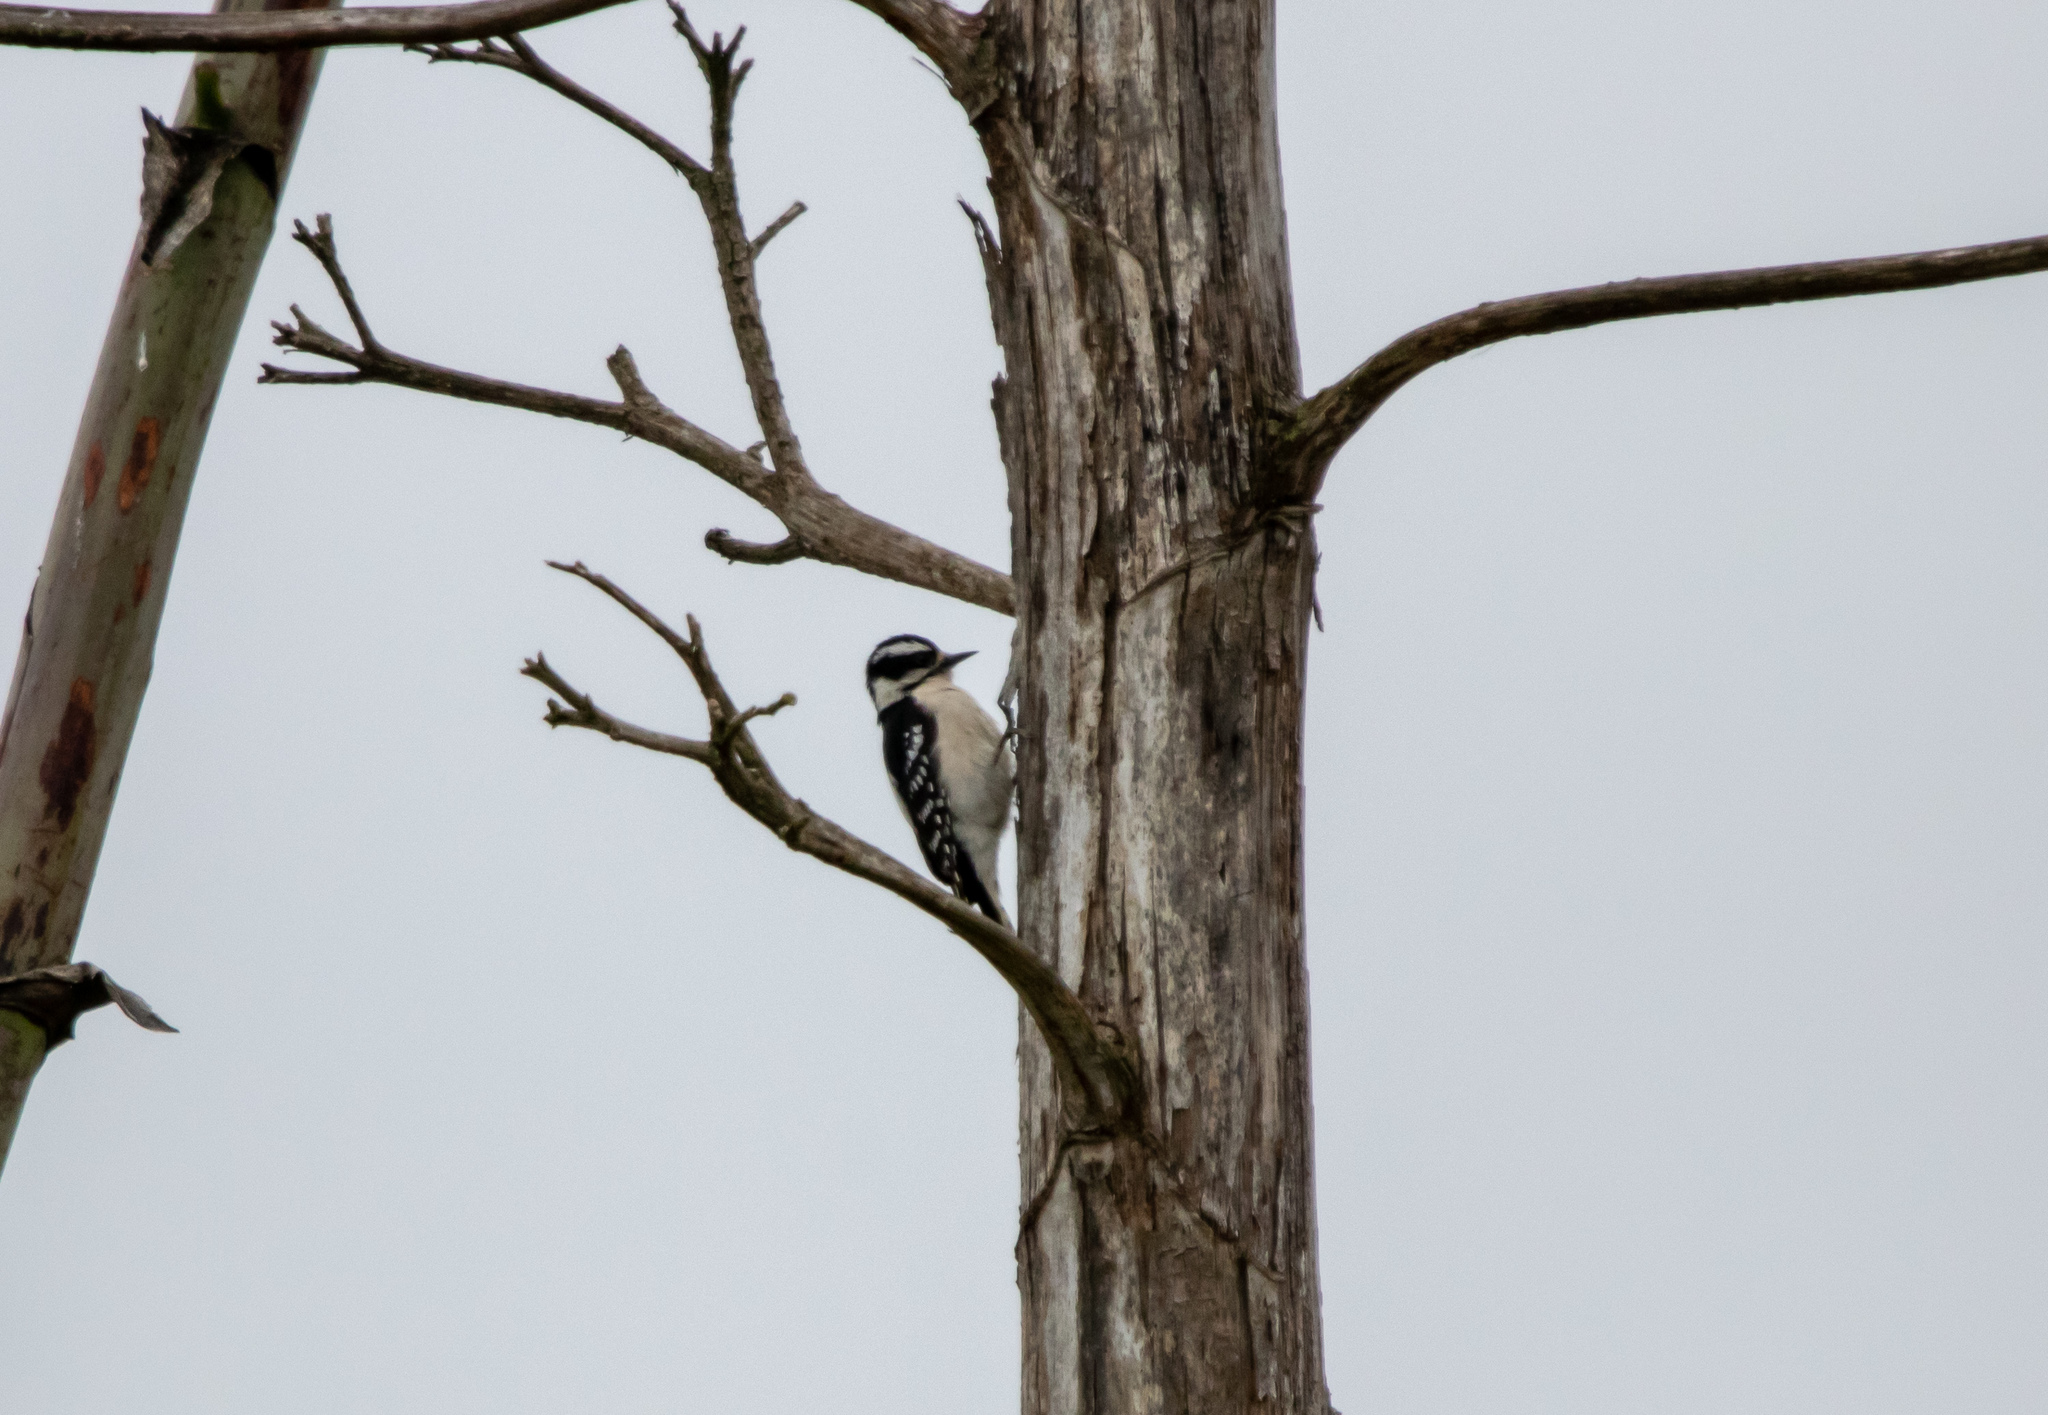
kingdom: Animalia
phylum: Chordata
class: Aves
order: Piciformes
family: Picidae
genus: Dryobates
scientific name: Dryobates pubescens
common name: Downy woodpecker
